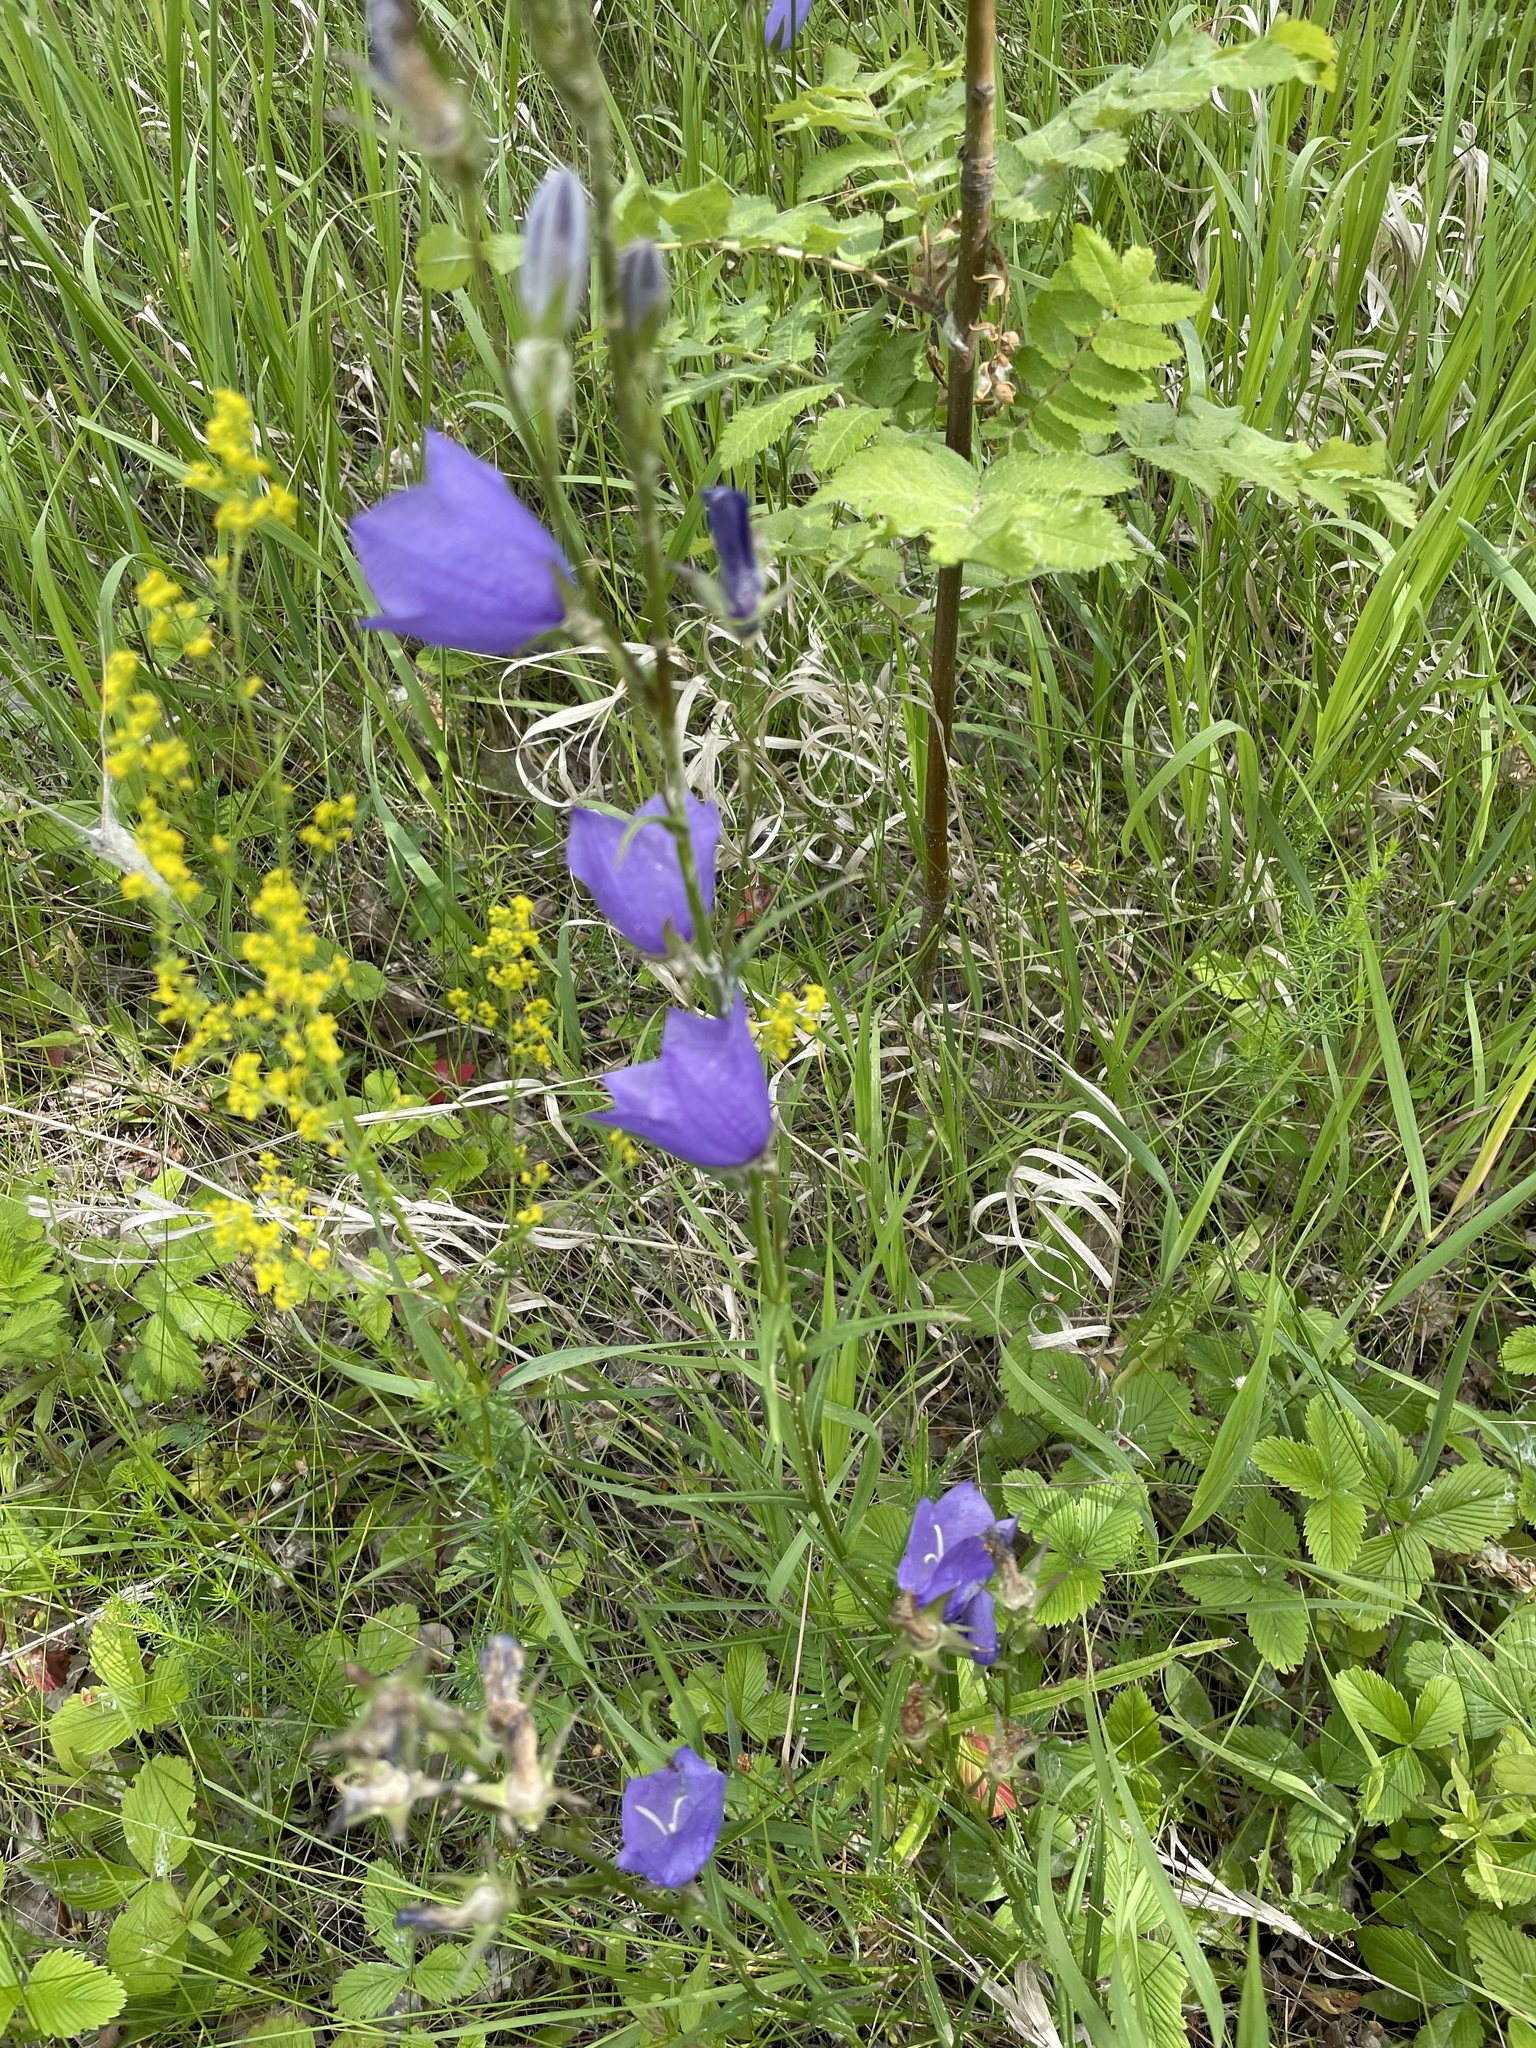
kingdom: Plantae
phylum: Tracheophyta
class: Magnoliopsida
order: Asterales
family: Campanulaceae
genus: Campanula
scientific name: Campanula persicifolia
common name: Peach-leaved bellflower
